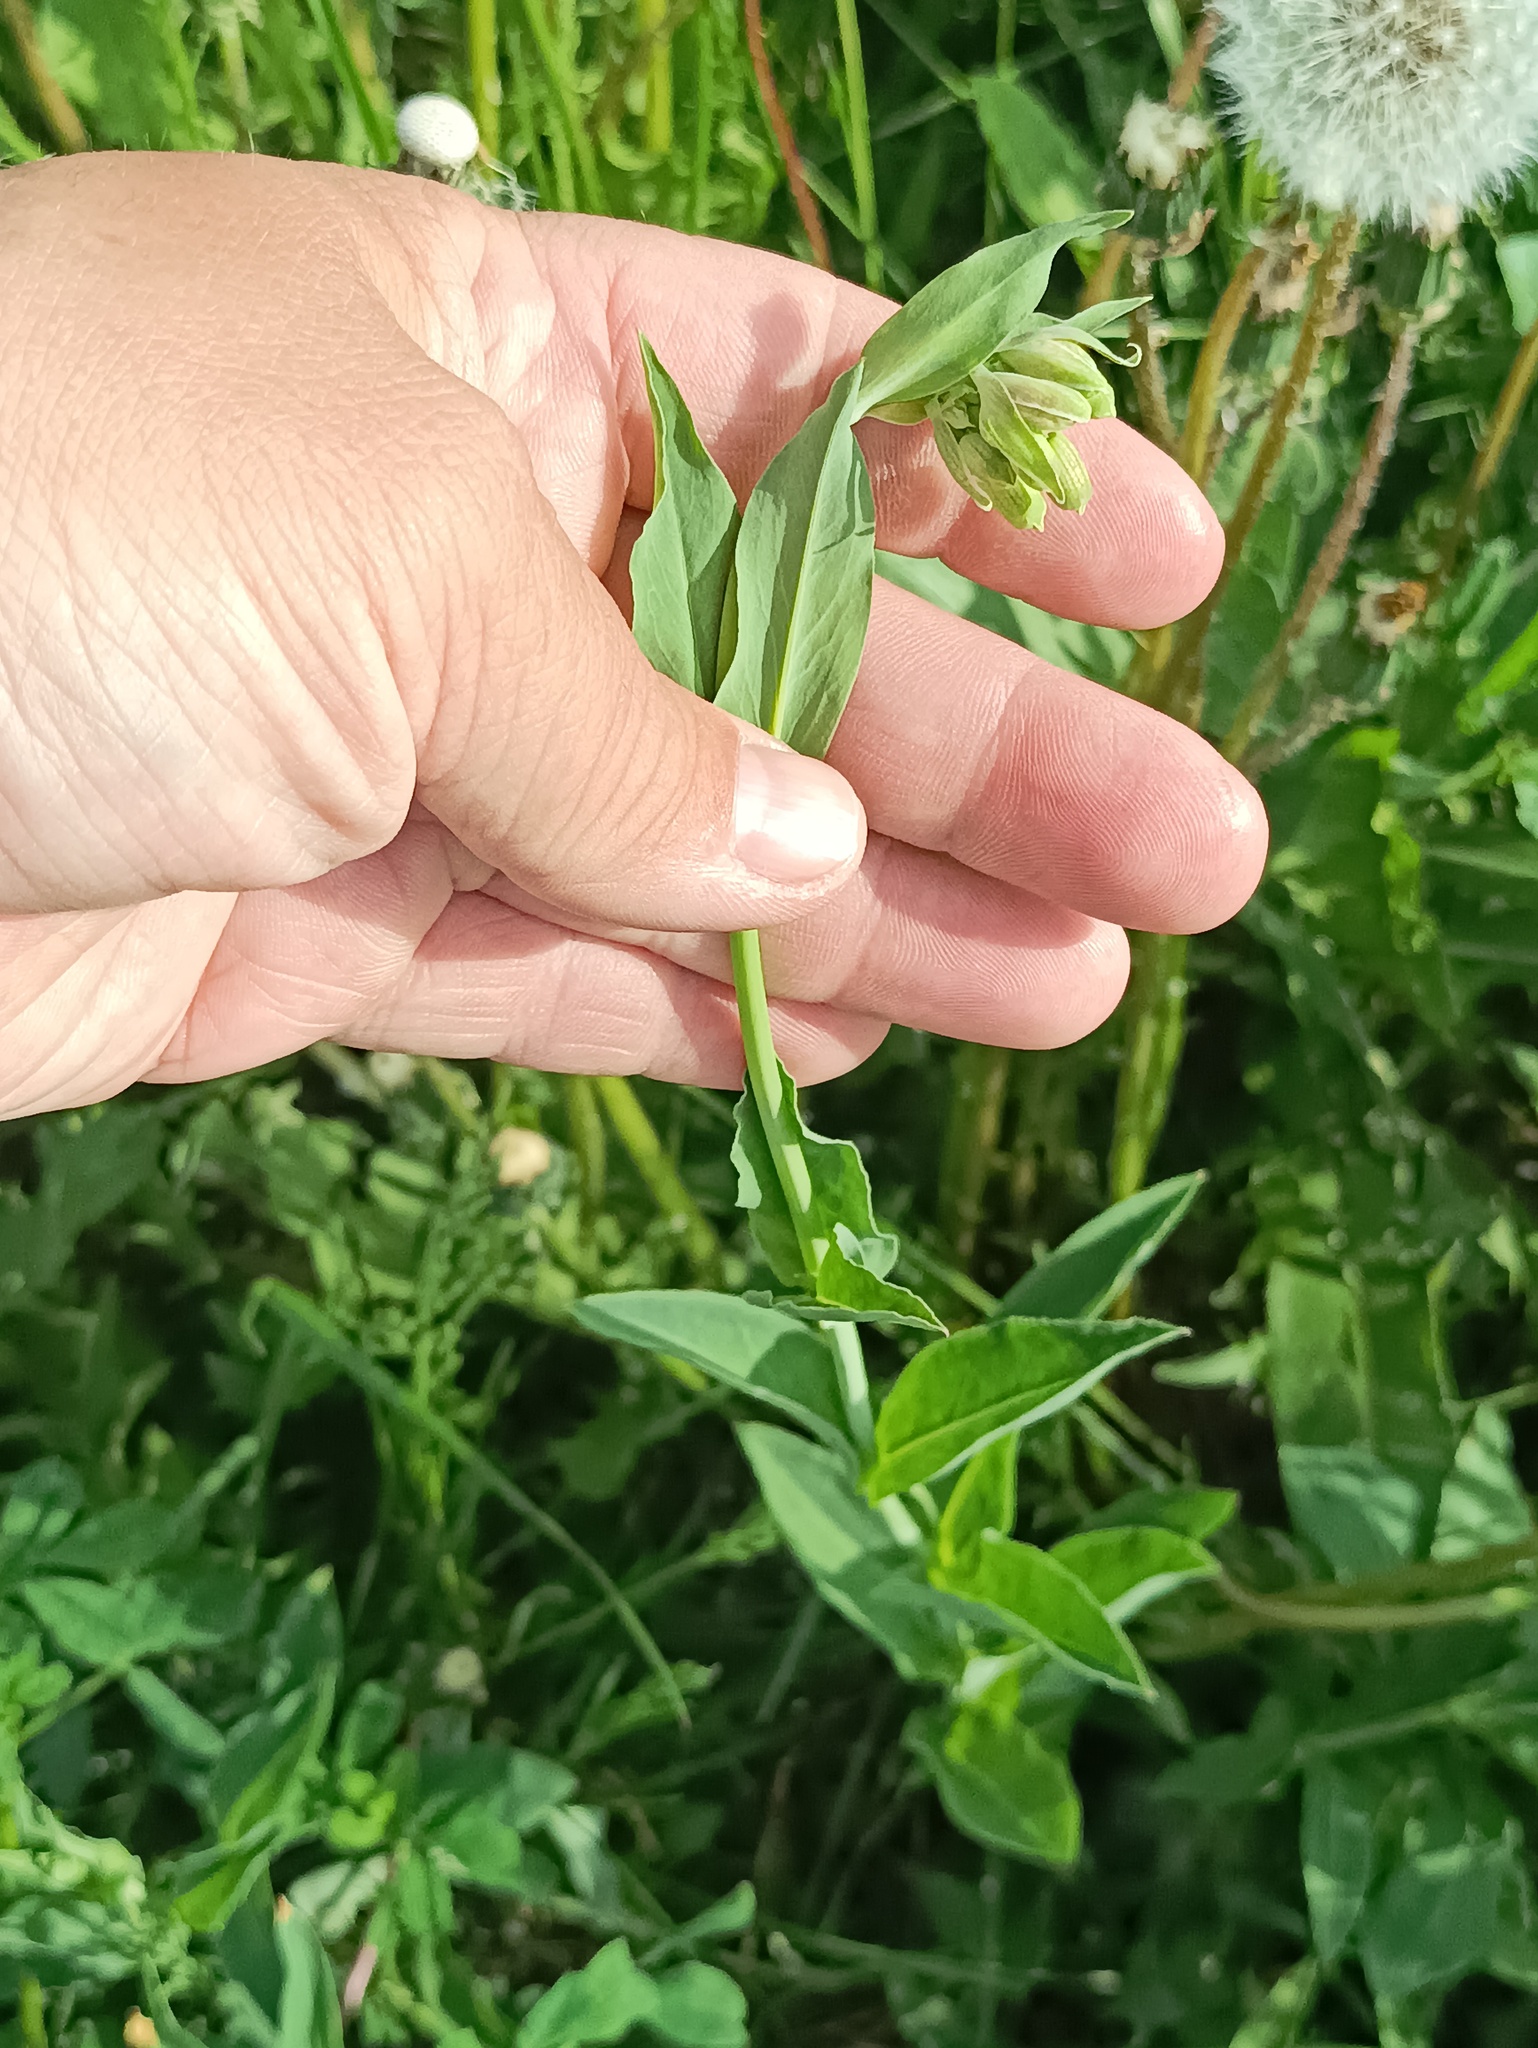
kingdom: Plantae
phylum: Tracheophyta
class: Magnoliopsida
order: Caryophyllales
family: Caryophyllaceae
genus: Silene
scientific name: Silene vulgaris
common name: Bladder campion
